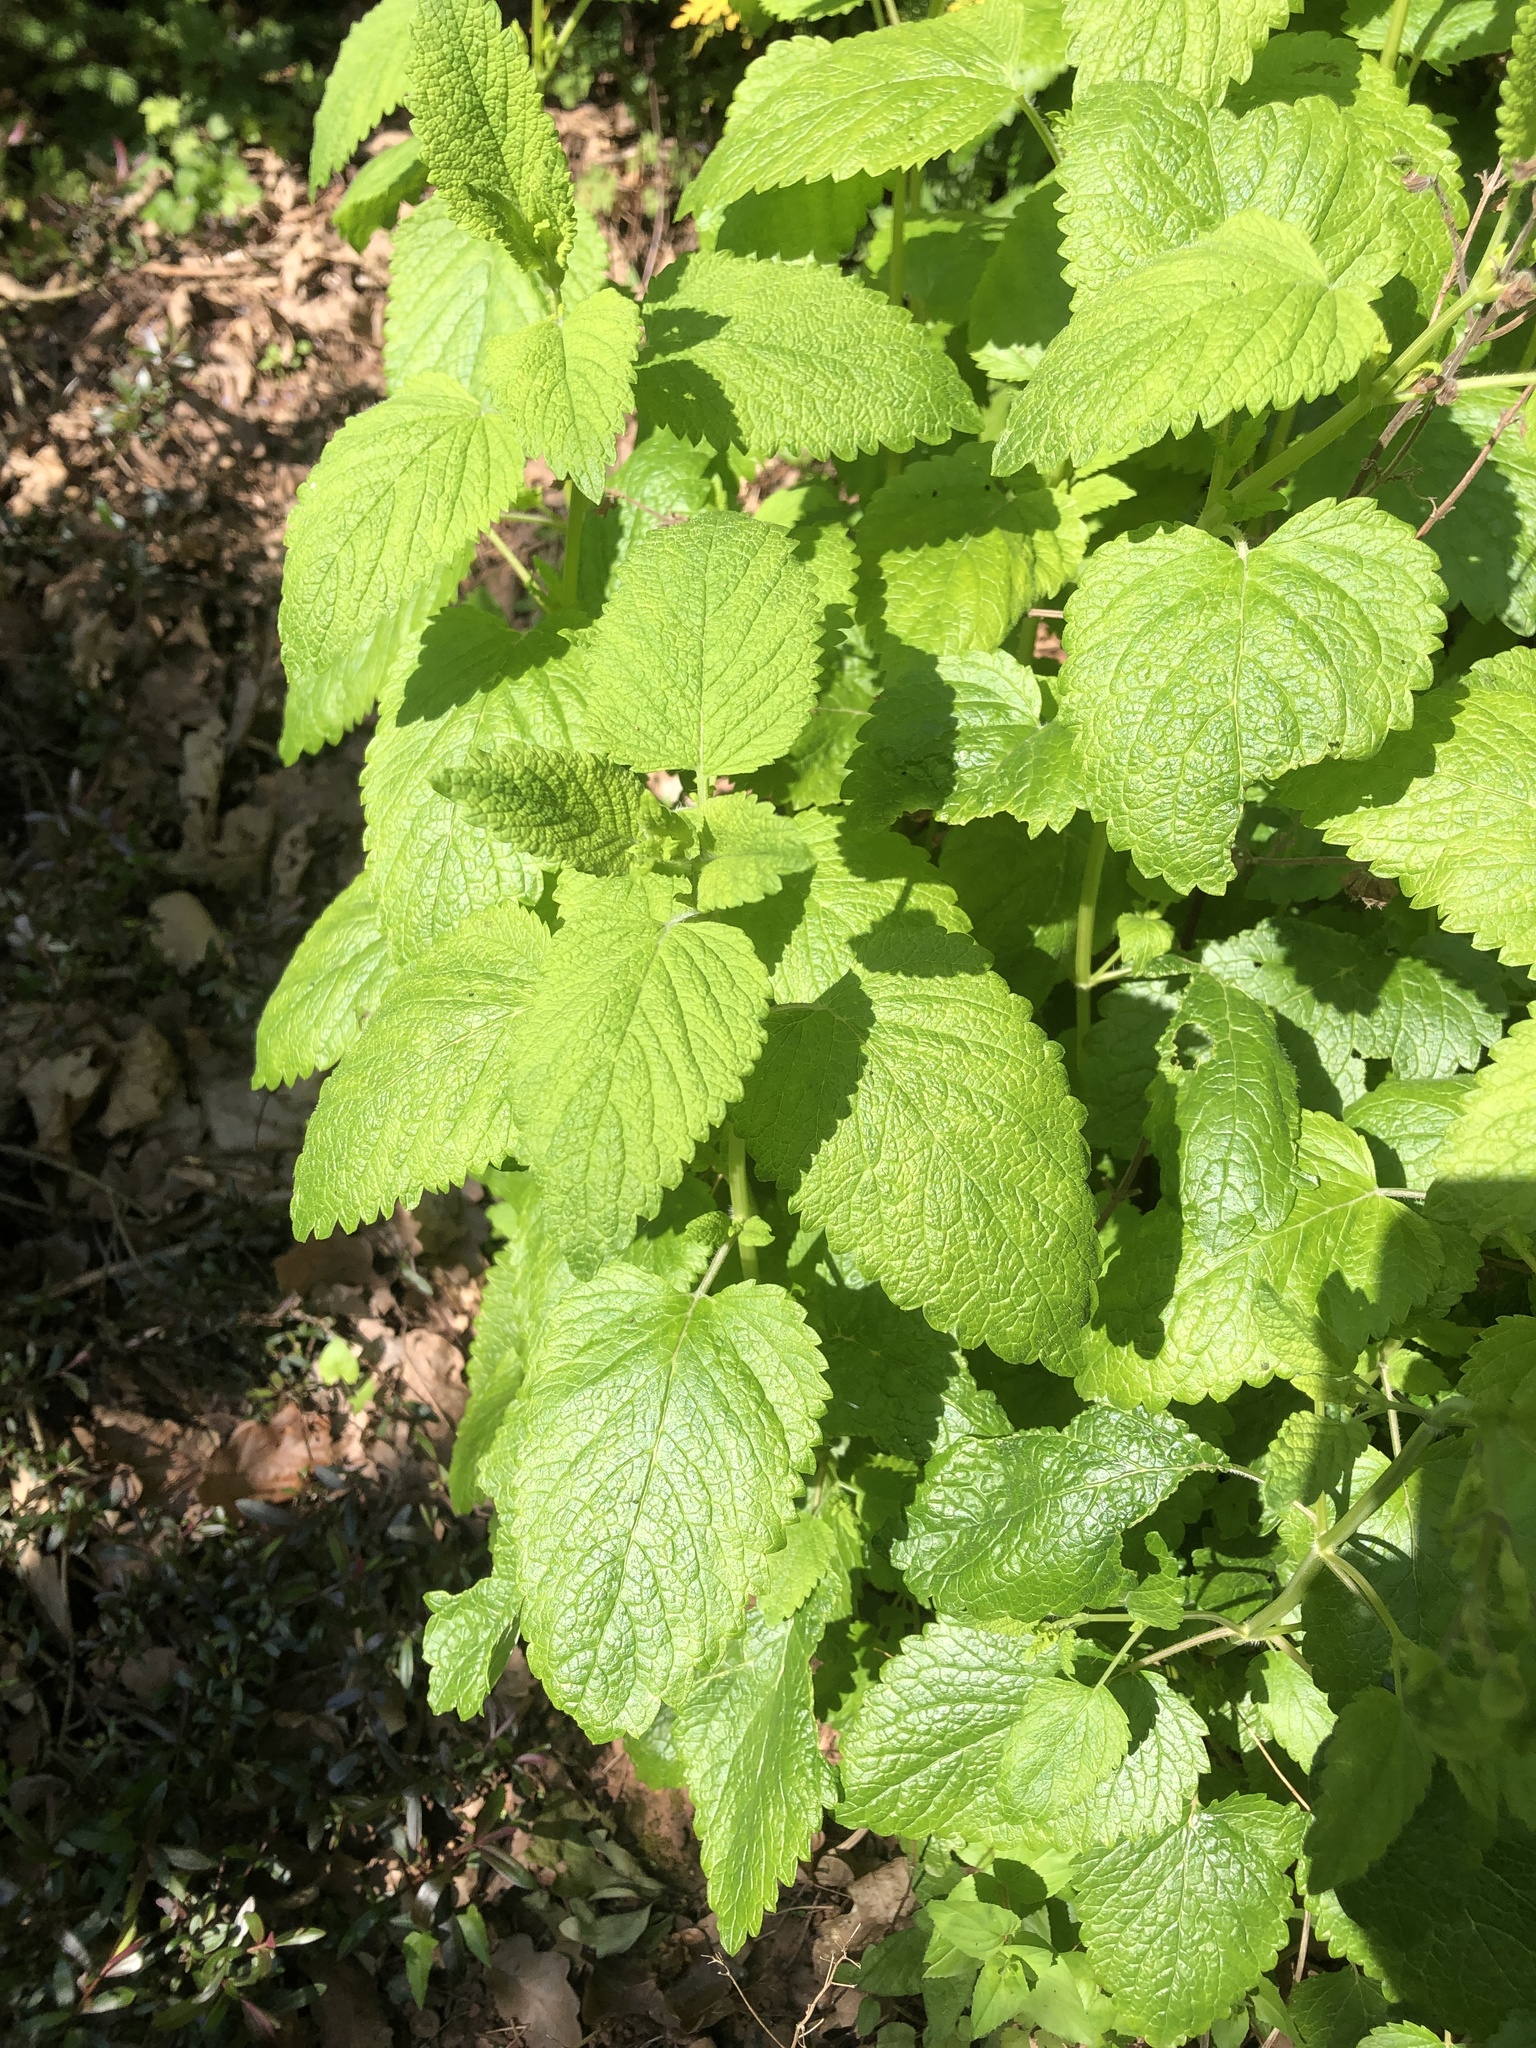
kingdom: Plantae
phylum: Tracheophyta
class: Magnoliopsida
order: Lamiales
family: Lamiaceae
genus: Melissa
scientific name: Melissa officinalis
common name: Balm
